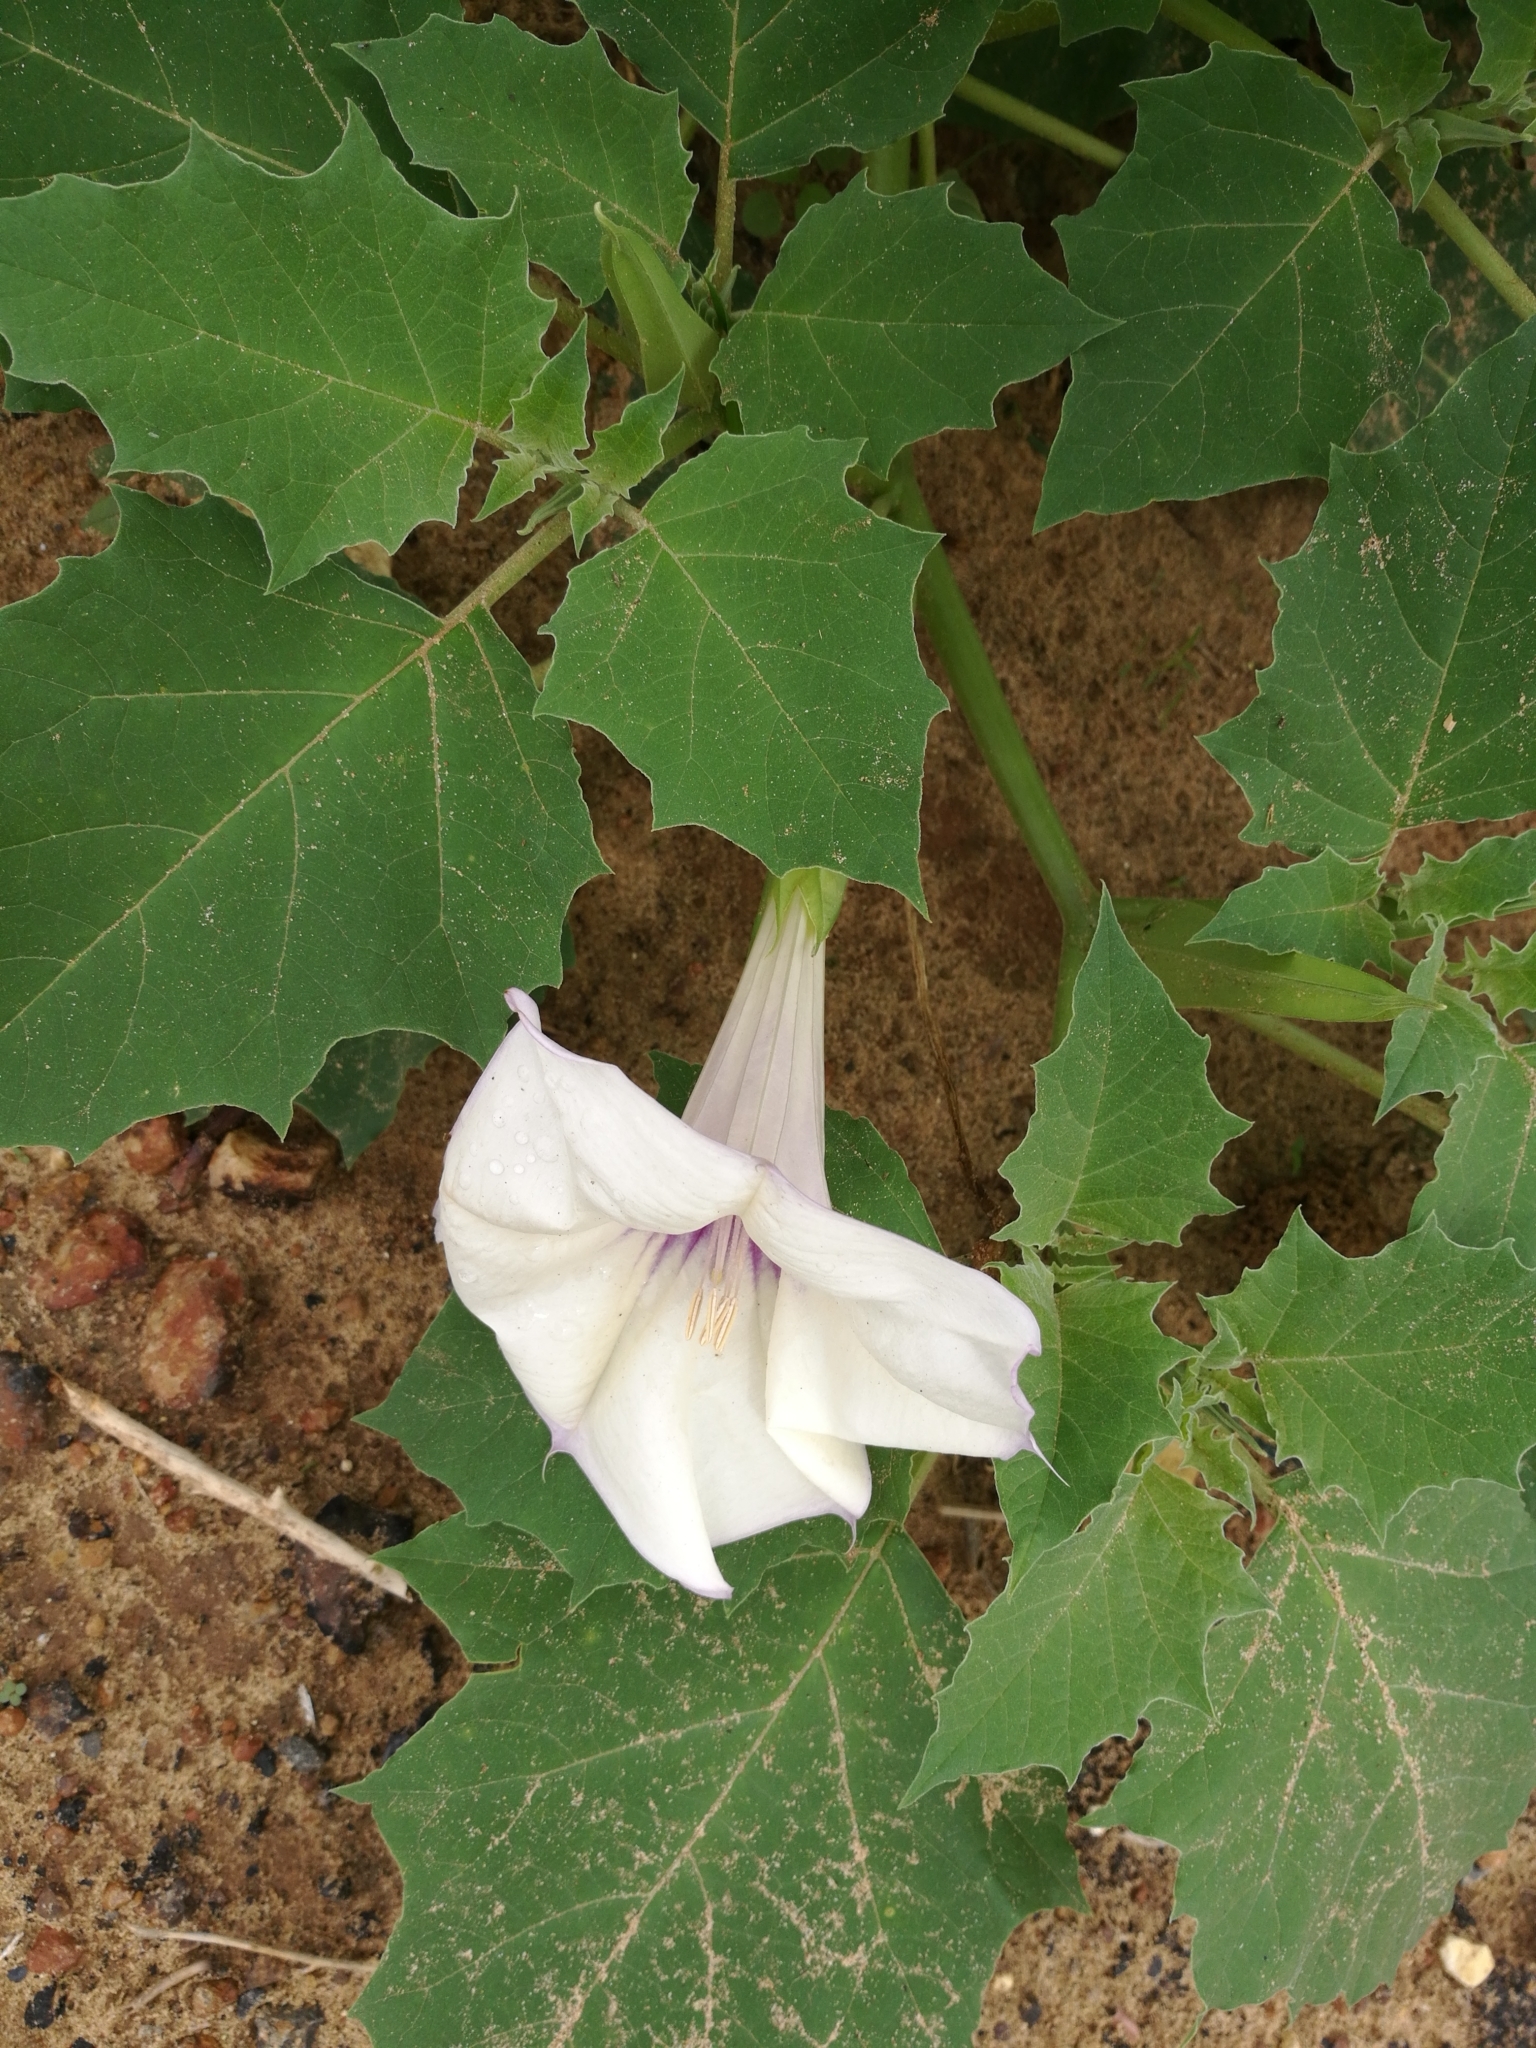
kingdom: Plantae
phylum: Tracheophyta
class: Magnoliopsida
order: Solanales
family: Solanaceae
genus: Datura
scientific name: Datura discolor
